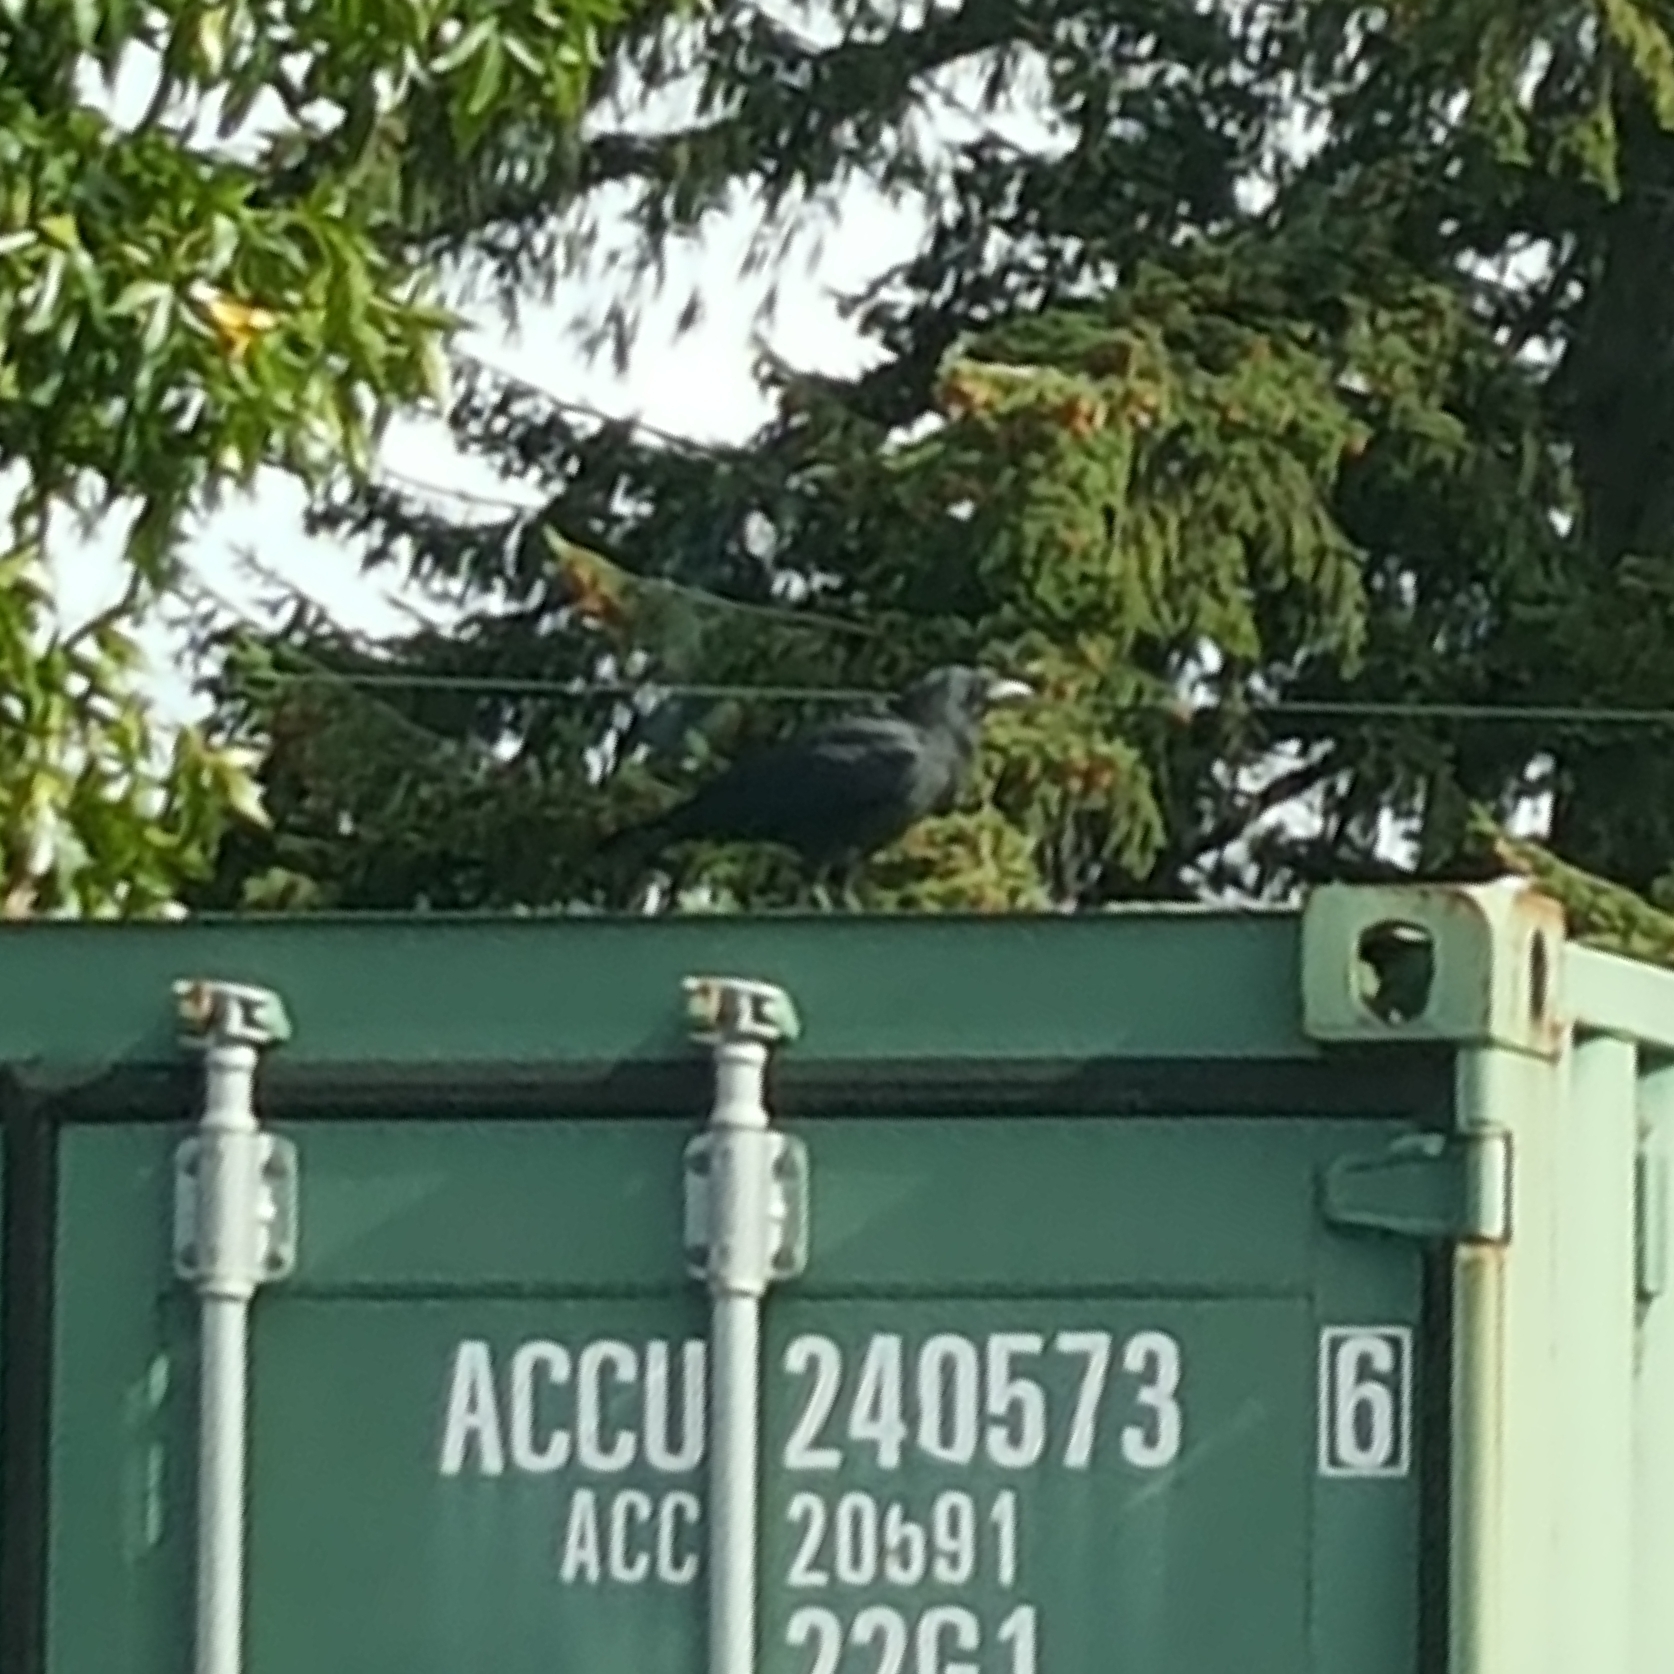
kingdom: Animalia
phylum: Chordata
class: Aves
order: Passeriformes
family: Corvidae
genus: Corvus
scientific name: Corvus brachyrhynchos
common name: American crow
